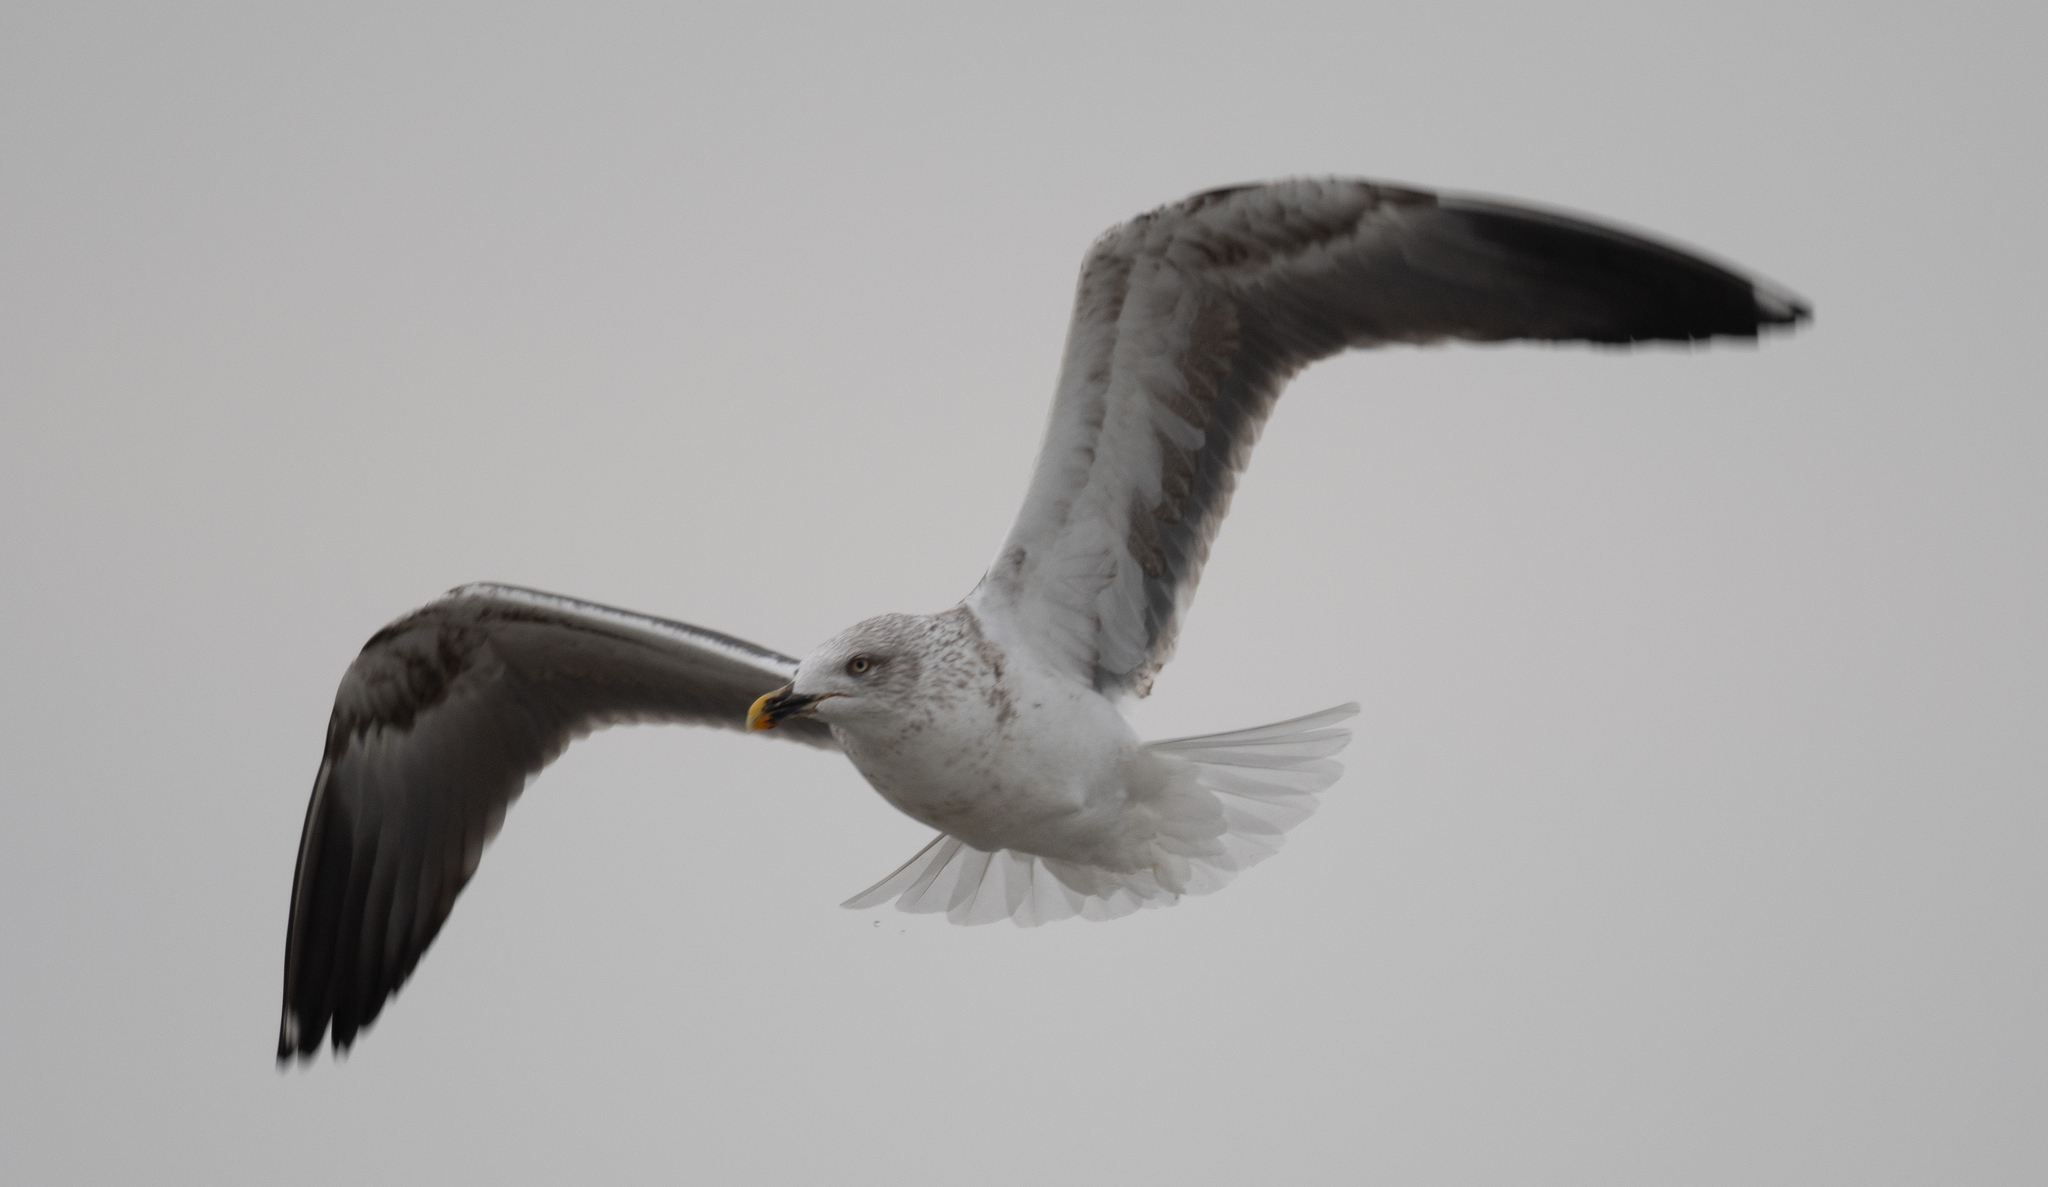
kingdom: Animalia
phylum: Chordata
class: Aves
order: Charadriiformes
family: Laridae
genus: Larus
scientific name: Larus fuscus
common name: Lesser black-backed gull
